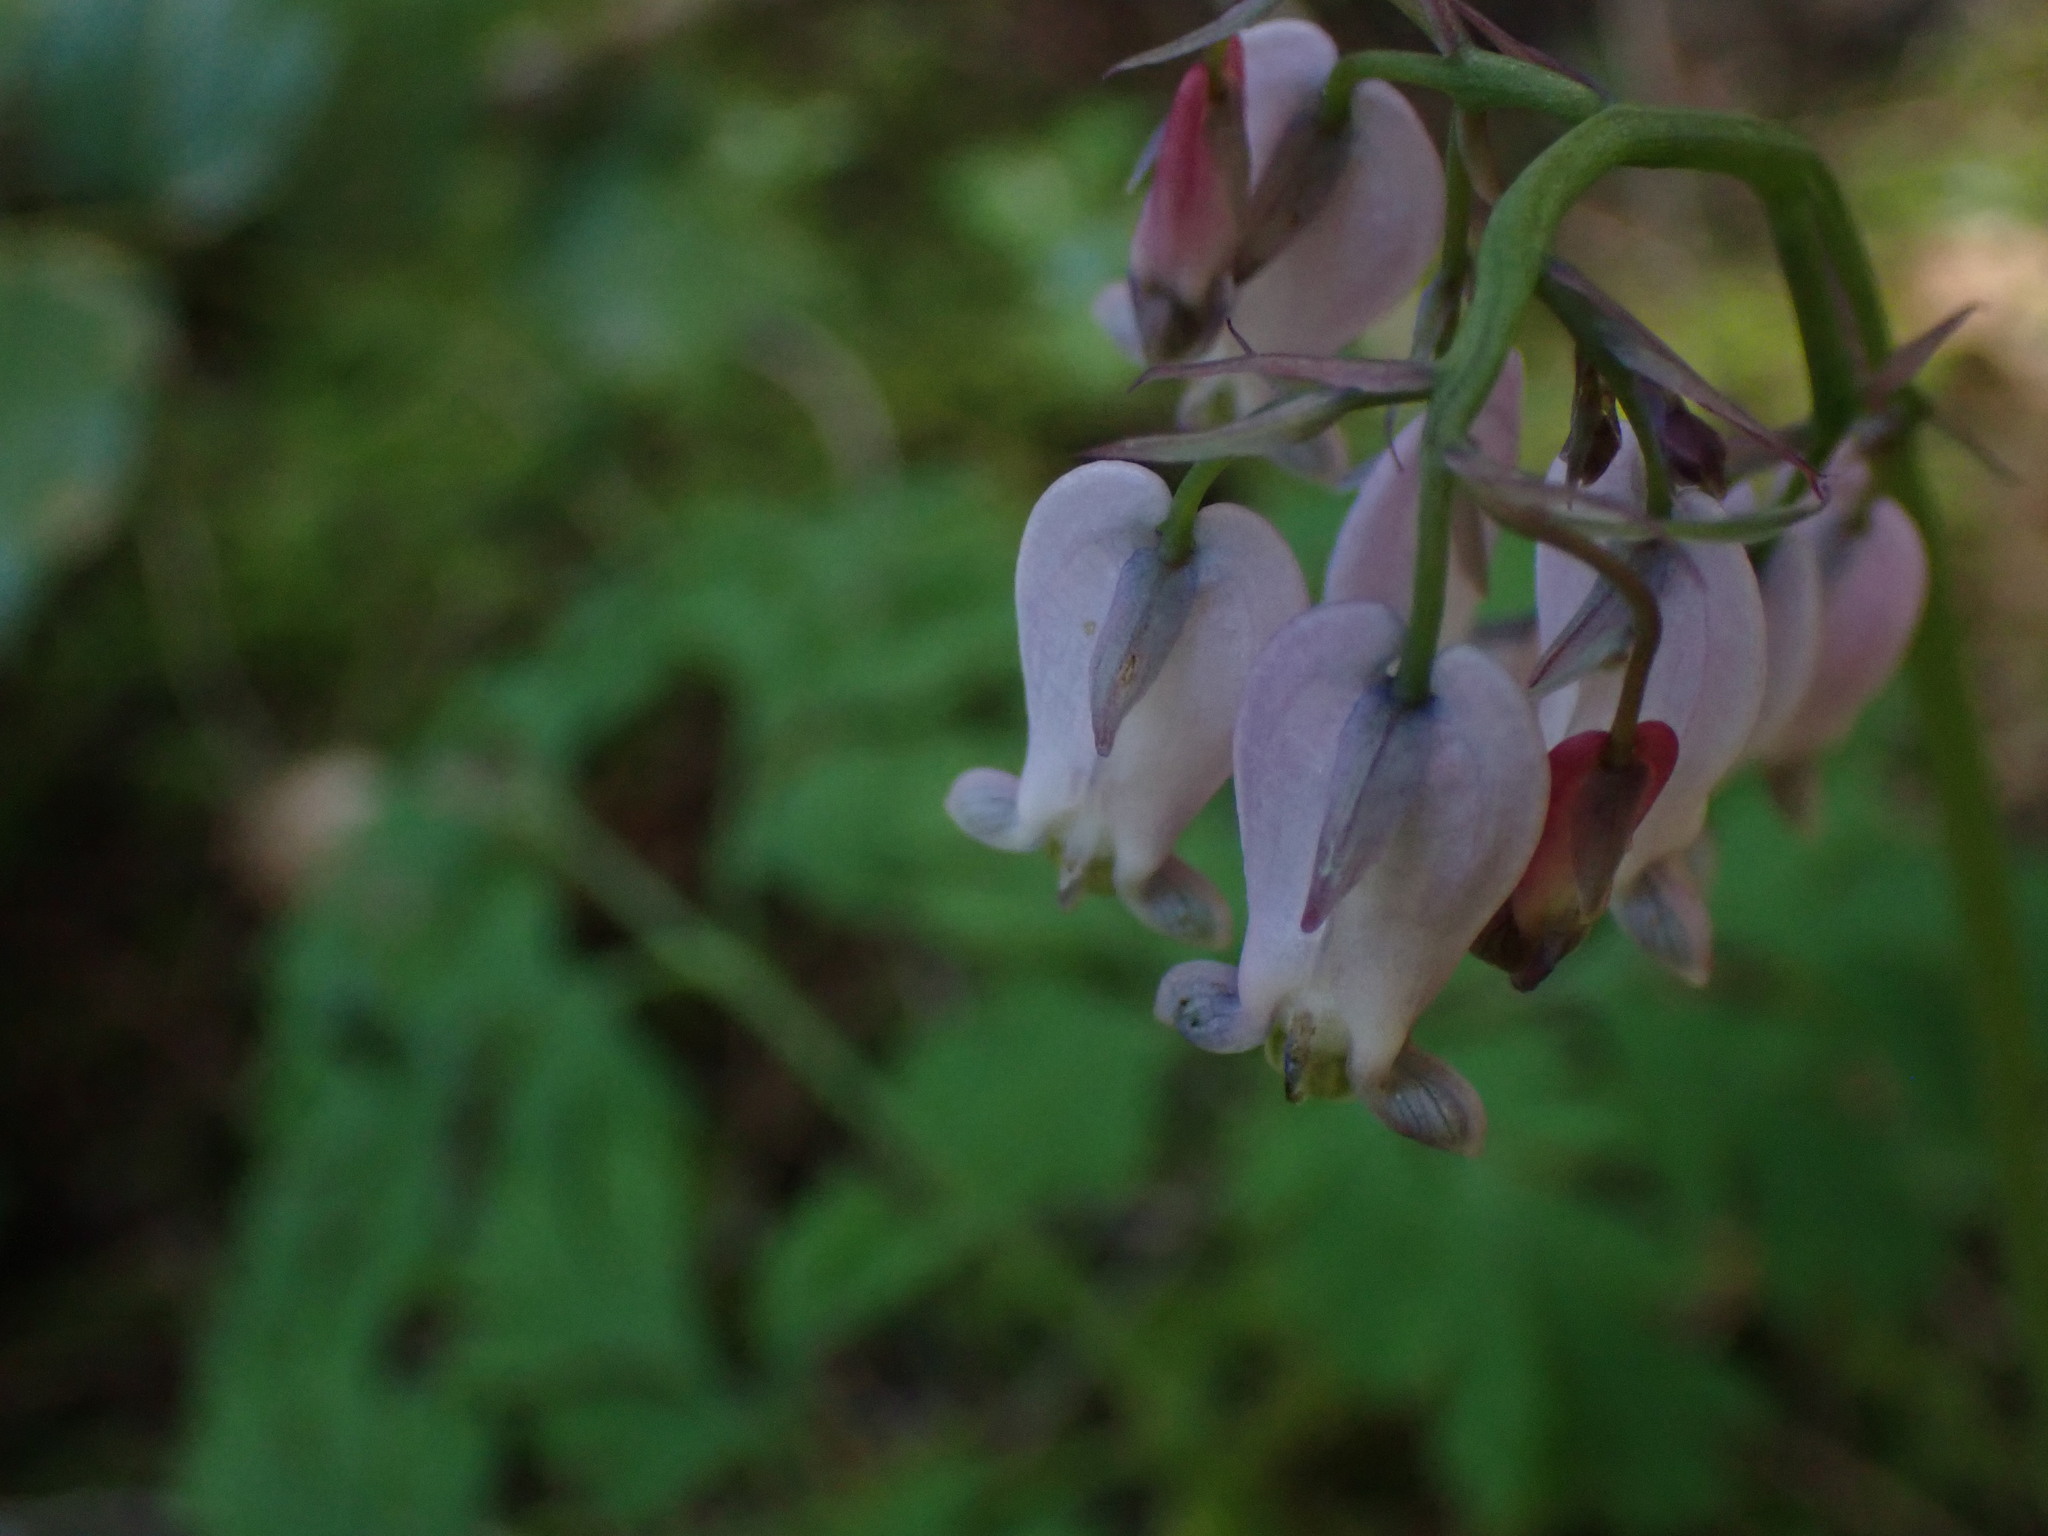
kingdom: Plantae
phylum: Tracheophyta
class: Magnoliopsida
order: Ranunculales
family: Papaveraceae
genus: Dicentra
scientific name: Dicentra formosa
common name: Bleeding-heart
